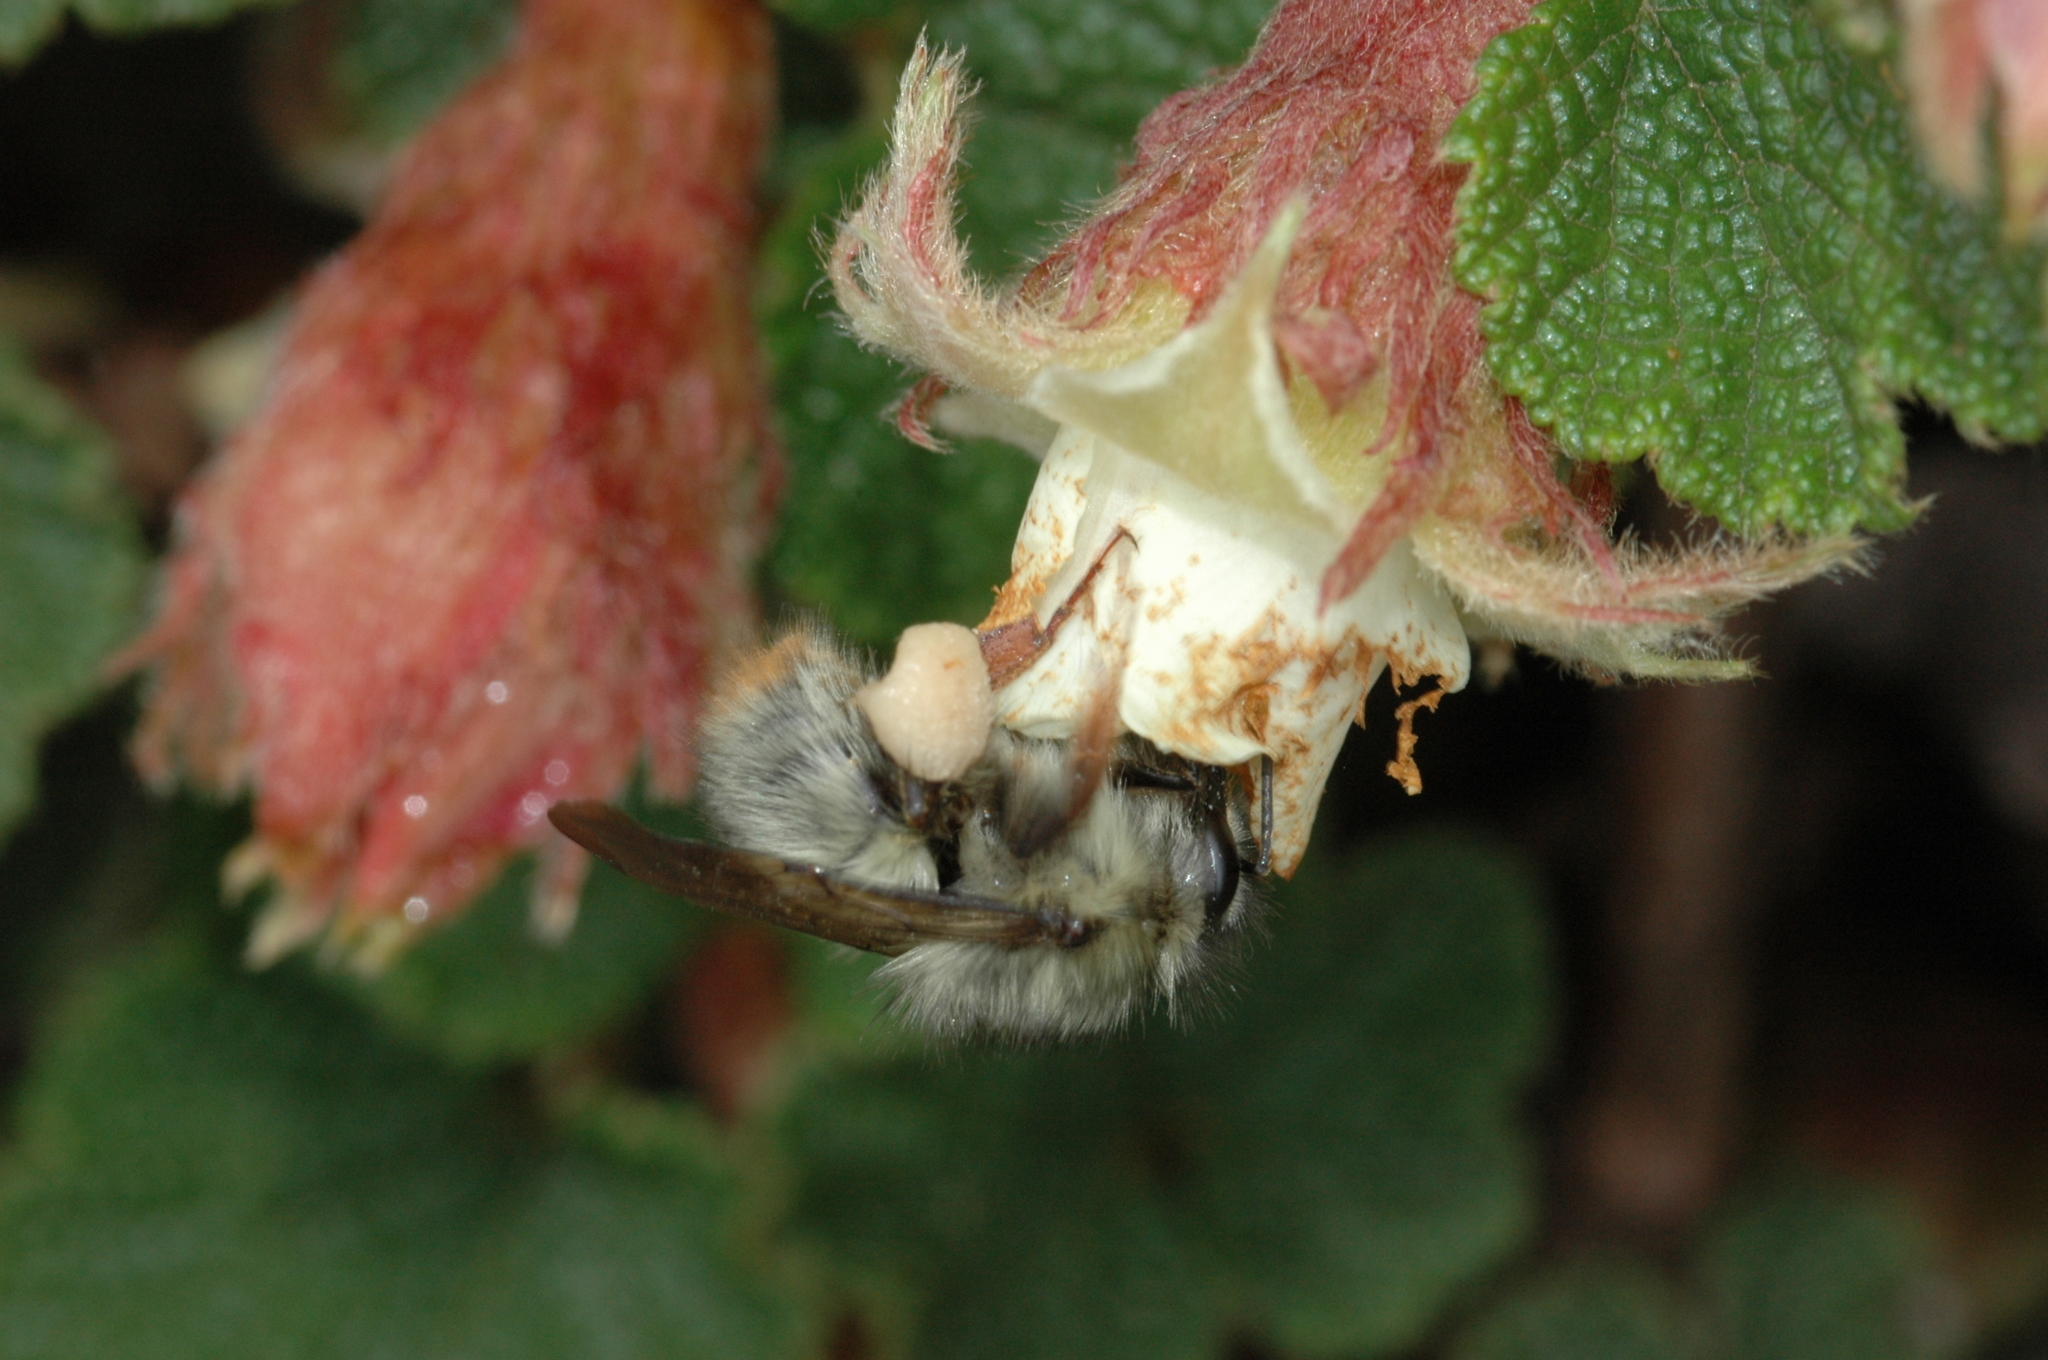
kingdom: Animalia
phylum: Arthropoda
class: Insecta
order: Hymenoptera
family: Apidae
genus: Bombus
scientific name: Bombus sonani
